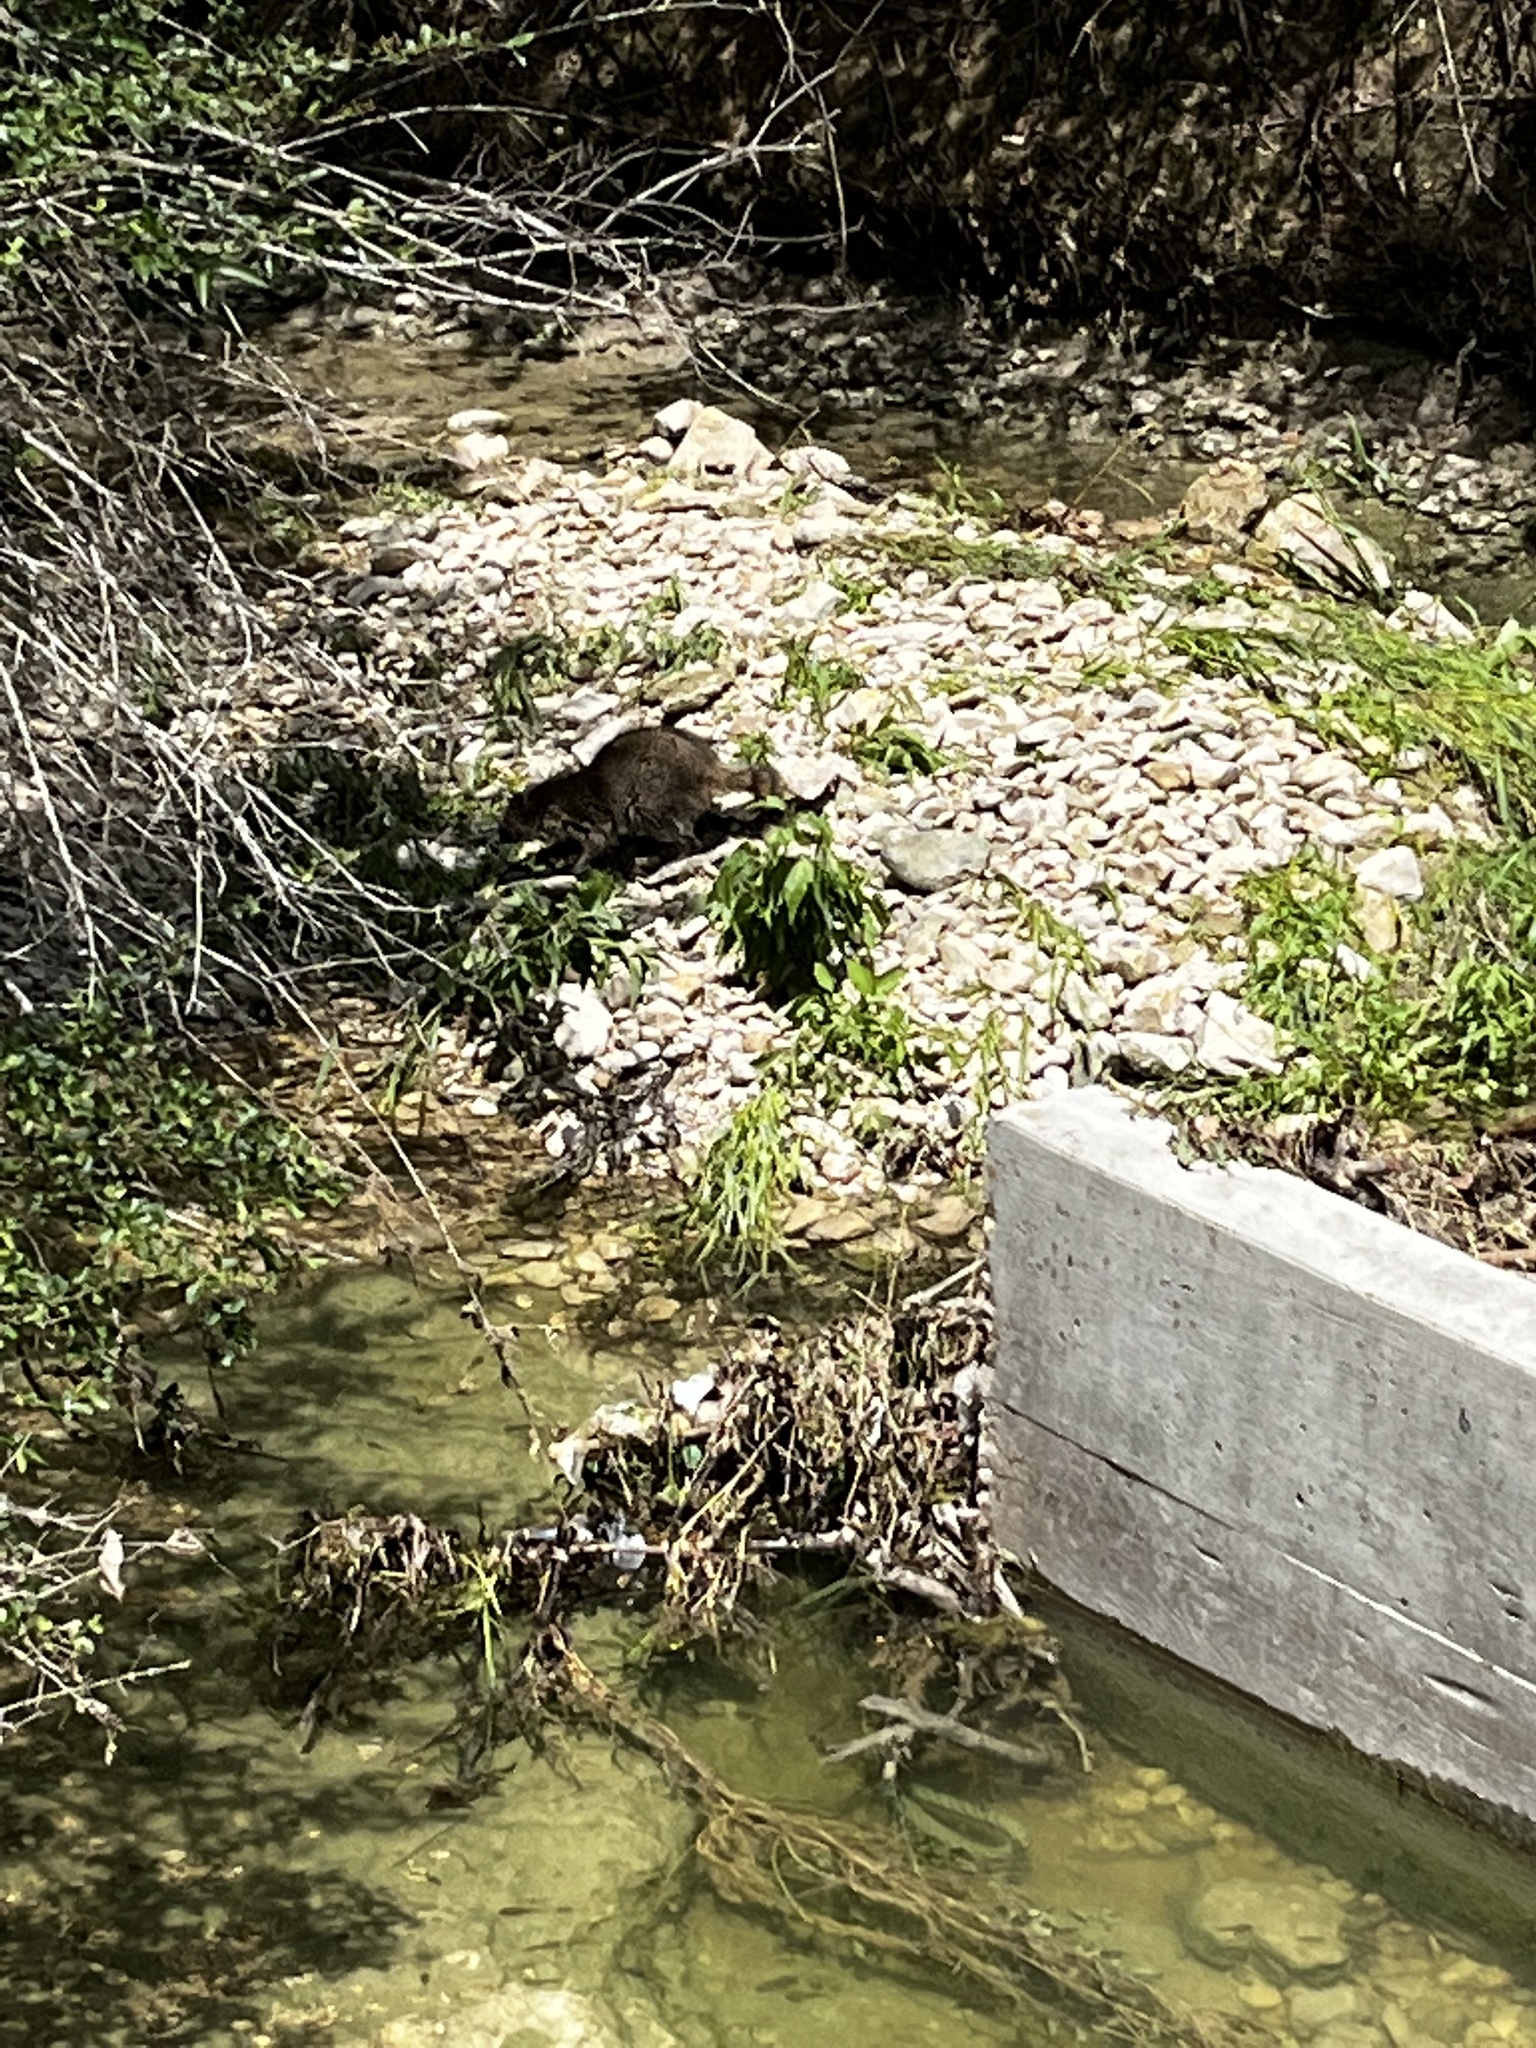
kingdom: Animalia
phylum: Chordata
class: Mammalia
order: Carnivora
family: Procyonidae
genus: Procyon
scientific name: Procyon lotor
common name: Raccoon
